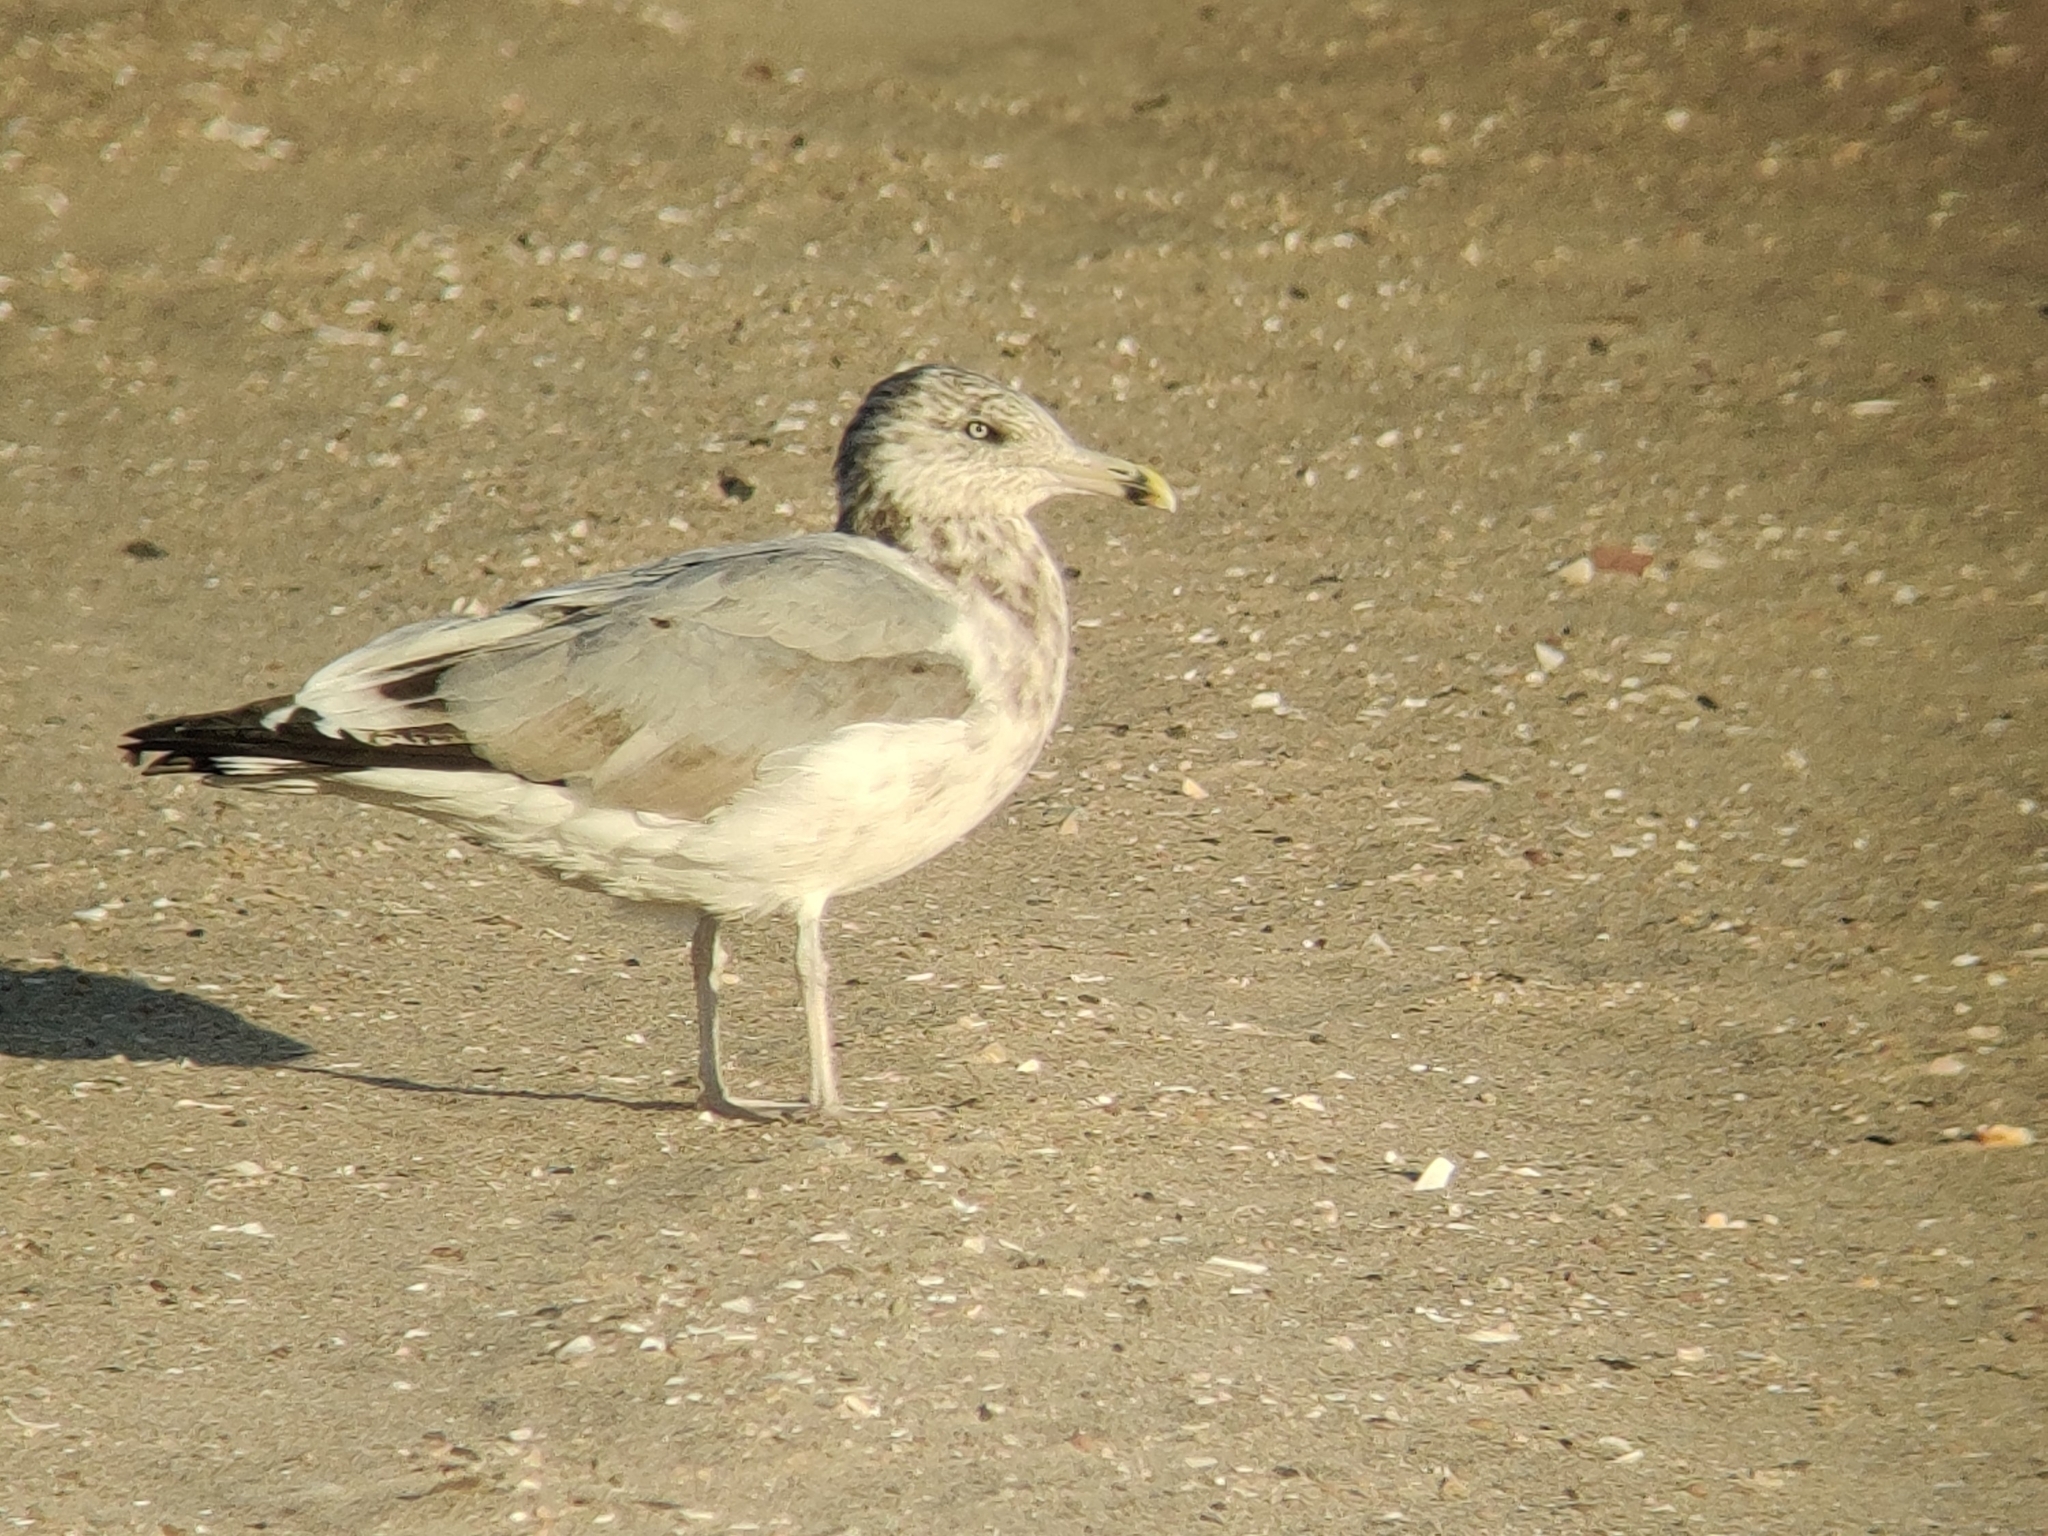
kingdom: Animalia
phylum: Chordata
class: Aves
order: Charadriiformes
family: Laridae
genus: Larus
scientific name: Larus argentatus
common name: Herring gull
